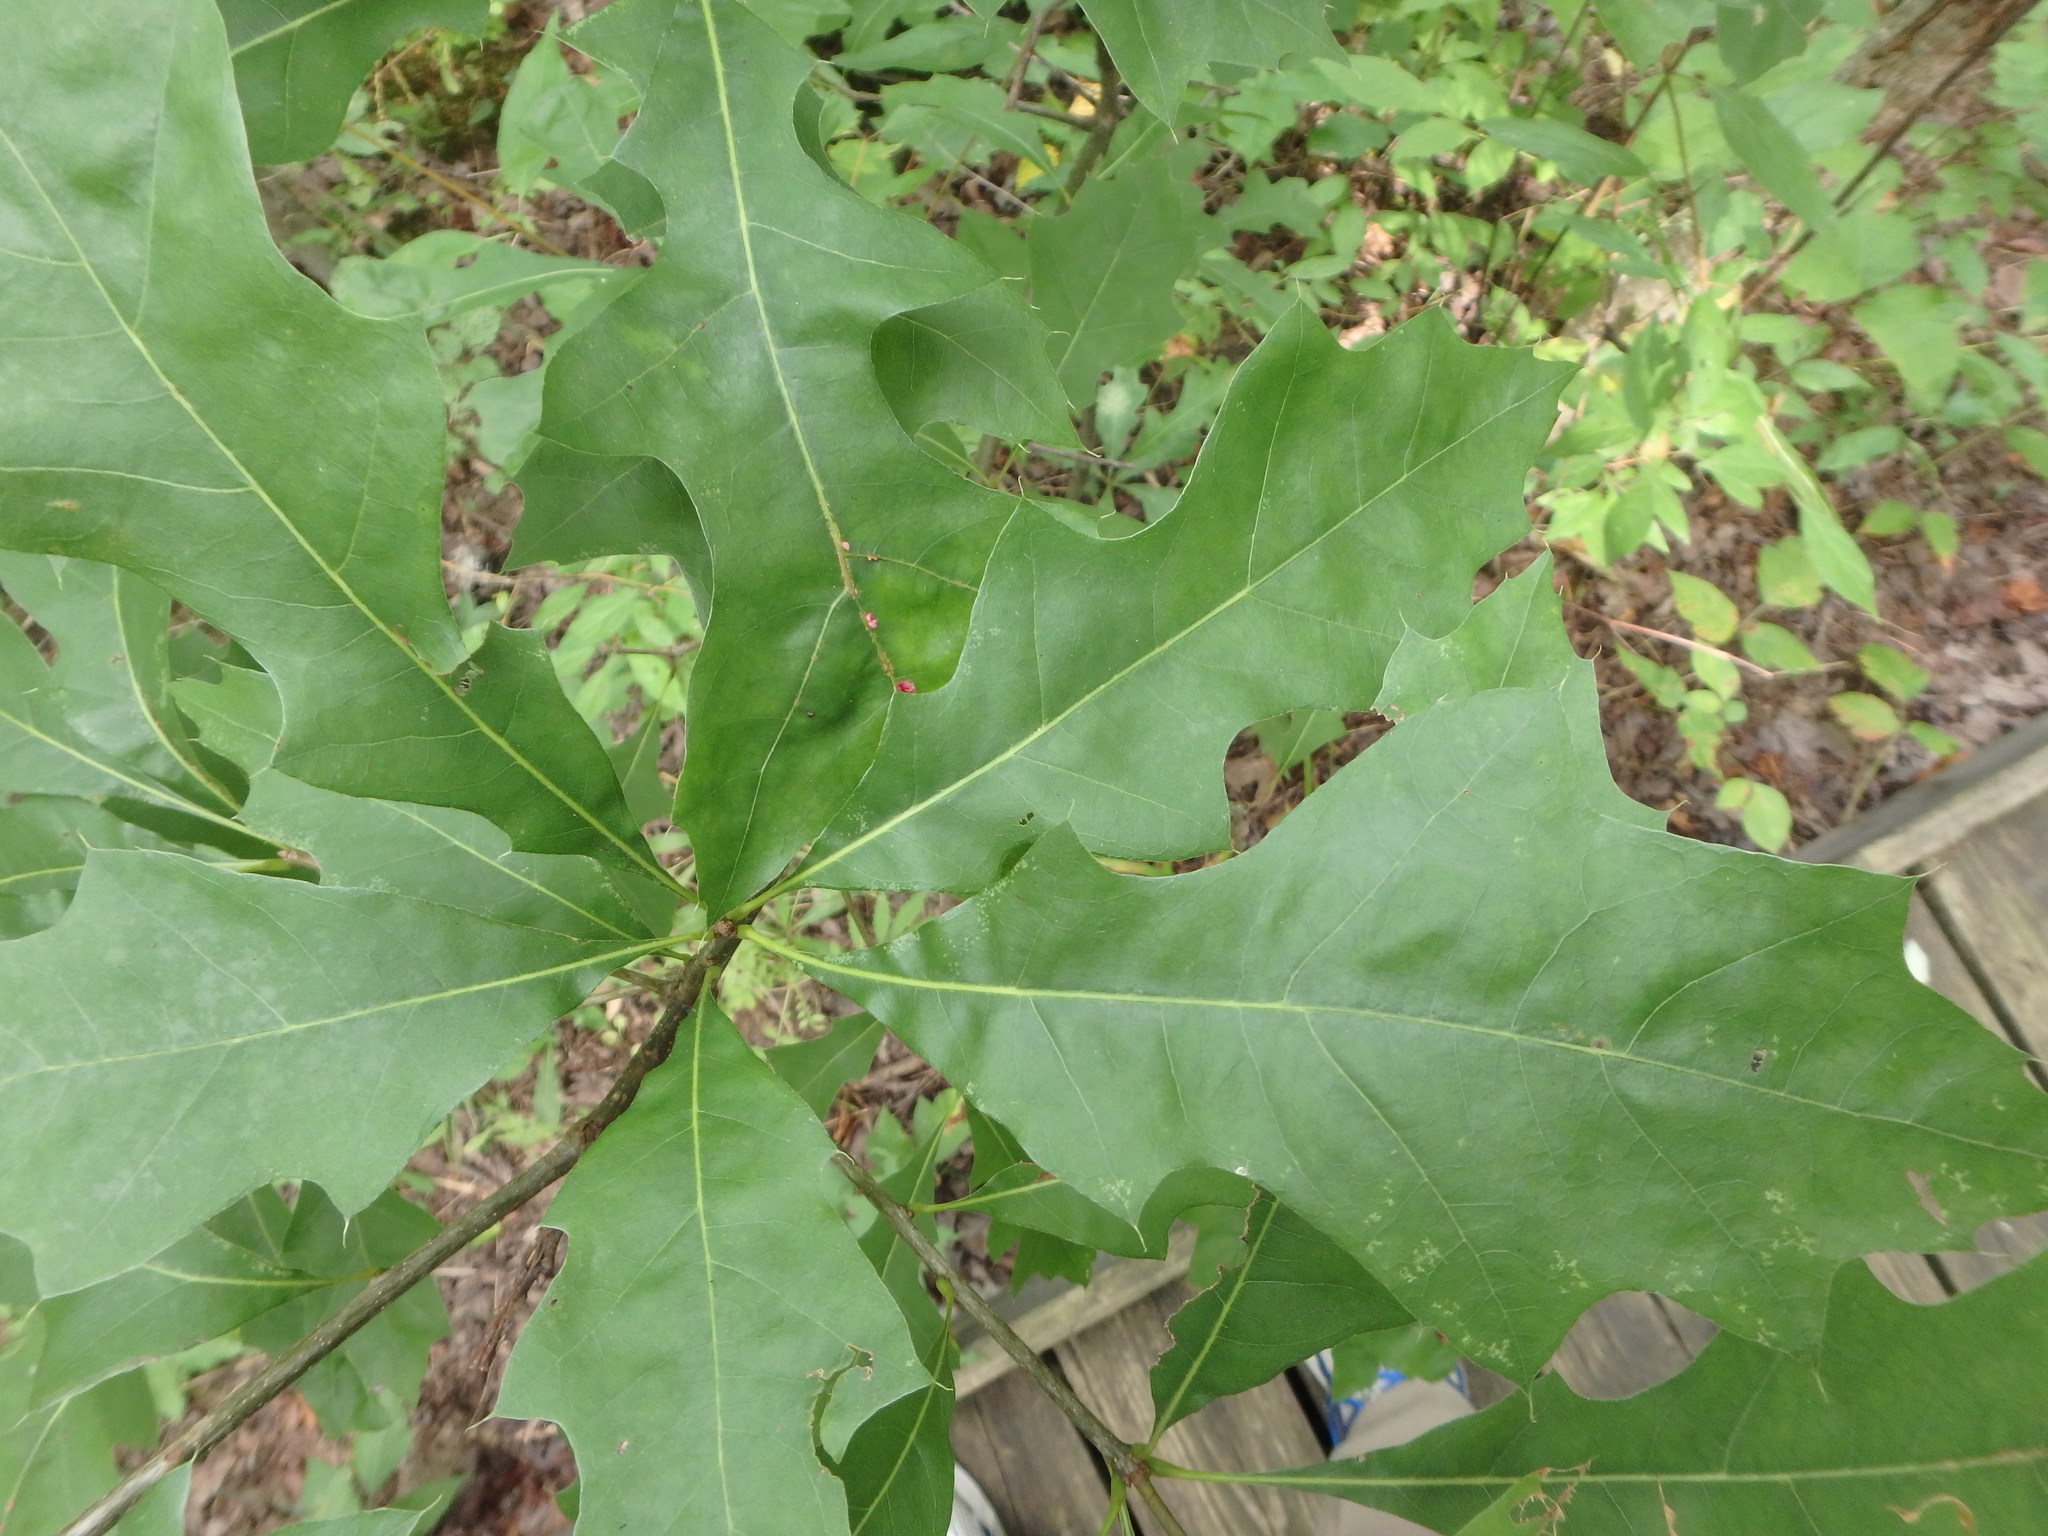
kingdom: Plantae
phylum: Tracheophyta
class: Magnoliopsida
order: Fagales
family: Fagaceae
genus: Quercus
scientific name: Quercus rubra
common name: Red oak
